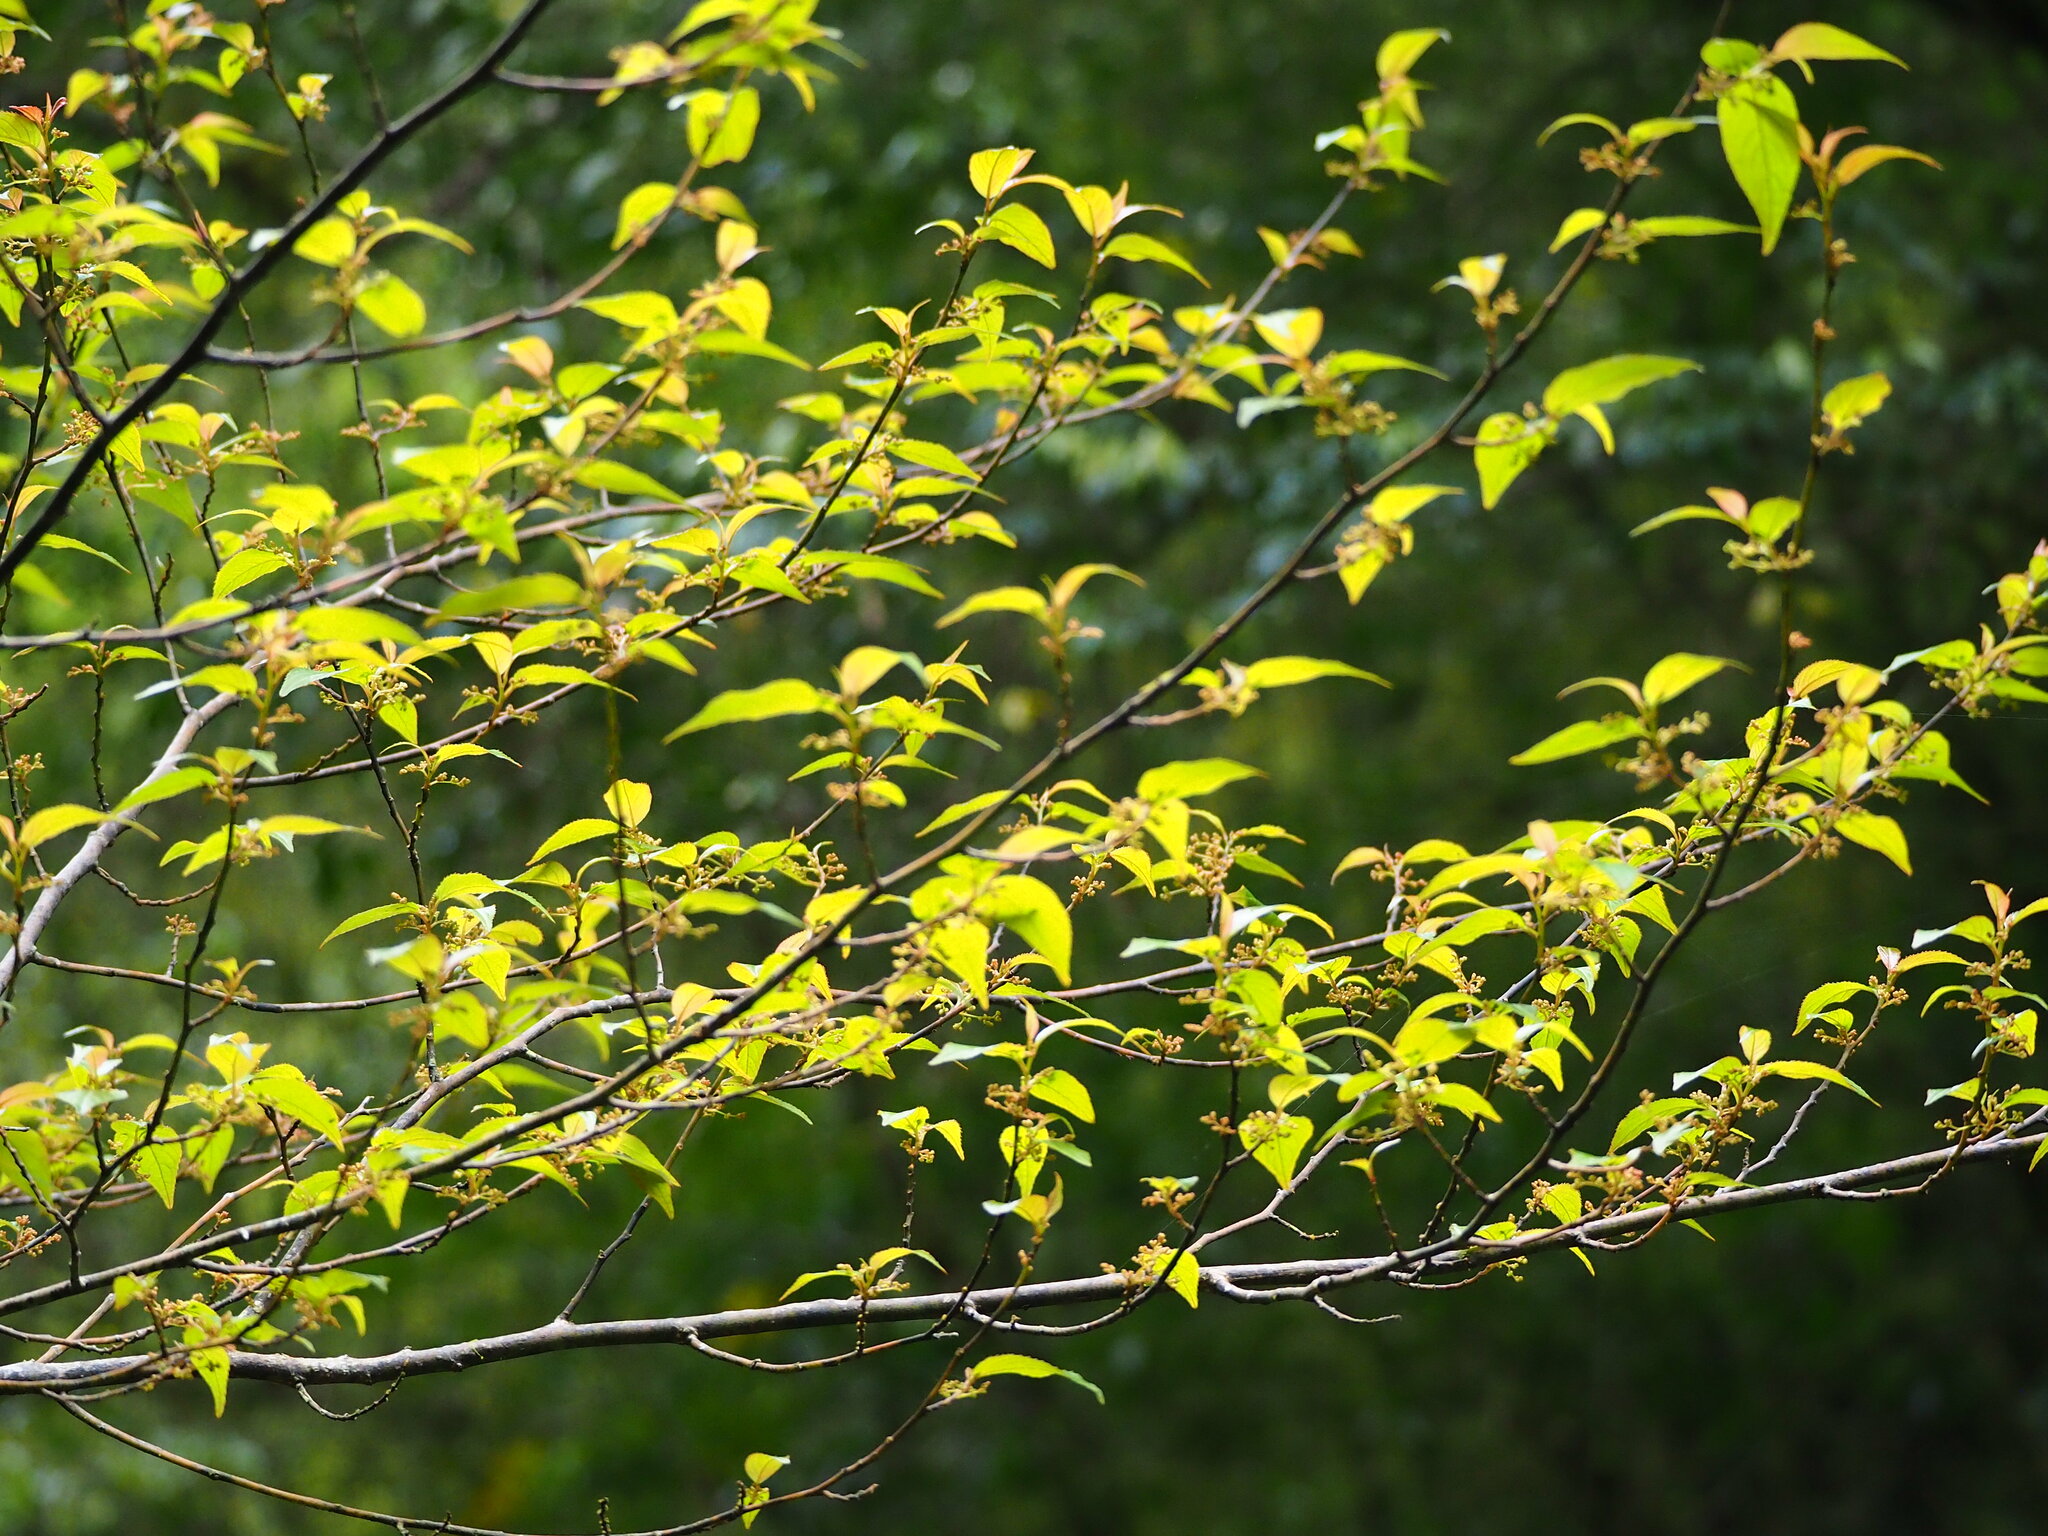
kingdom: Plantae
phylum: Tracheophyta
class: Magnoliopsida
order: Huerteales
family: Dipentodontaceae
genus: Perrottetia
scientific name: Perrottetia arisanensis
